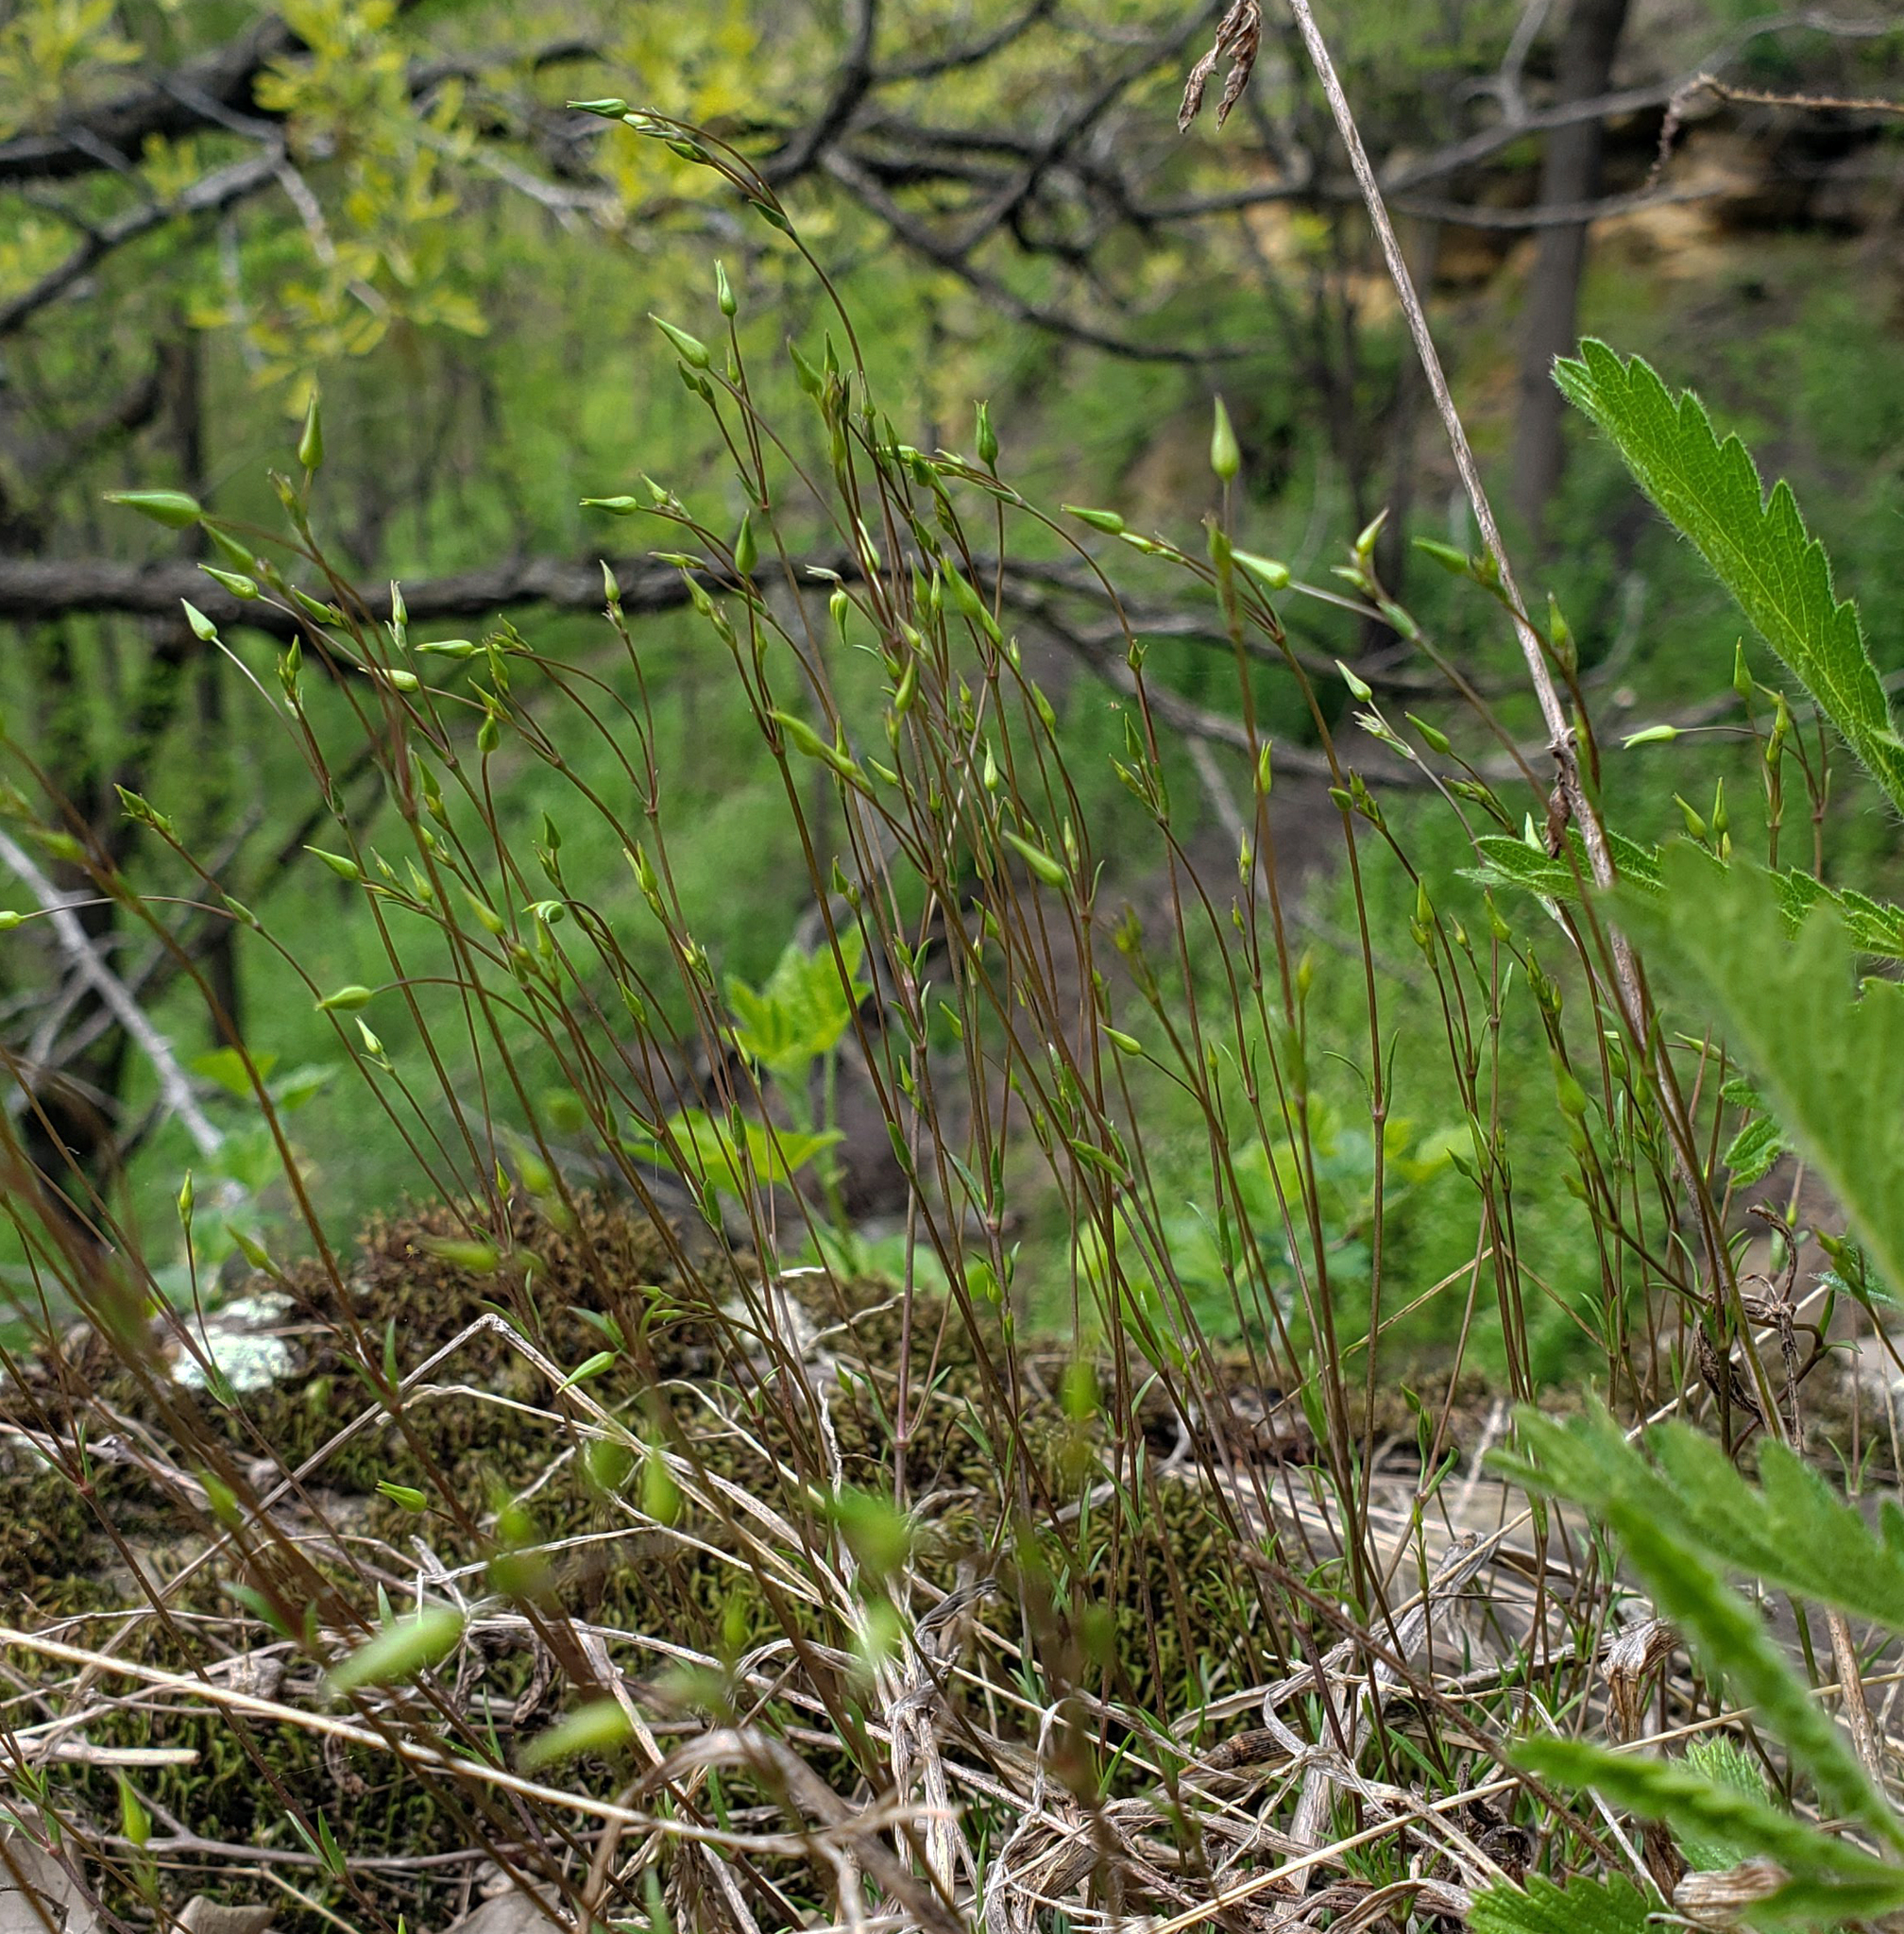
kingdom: Plantae
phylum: Tracheophyta
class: Magnoliopsida
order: Caryophyllales
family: Caryophyllaceae
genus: Sabulina
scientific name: Sabulina michauxii
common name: Michaux's stitchwort
